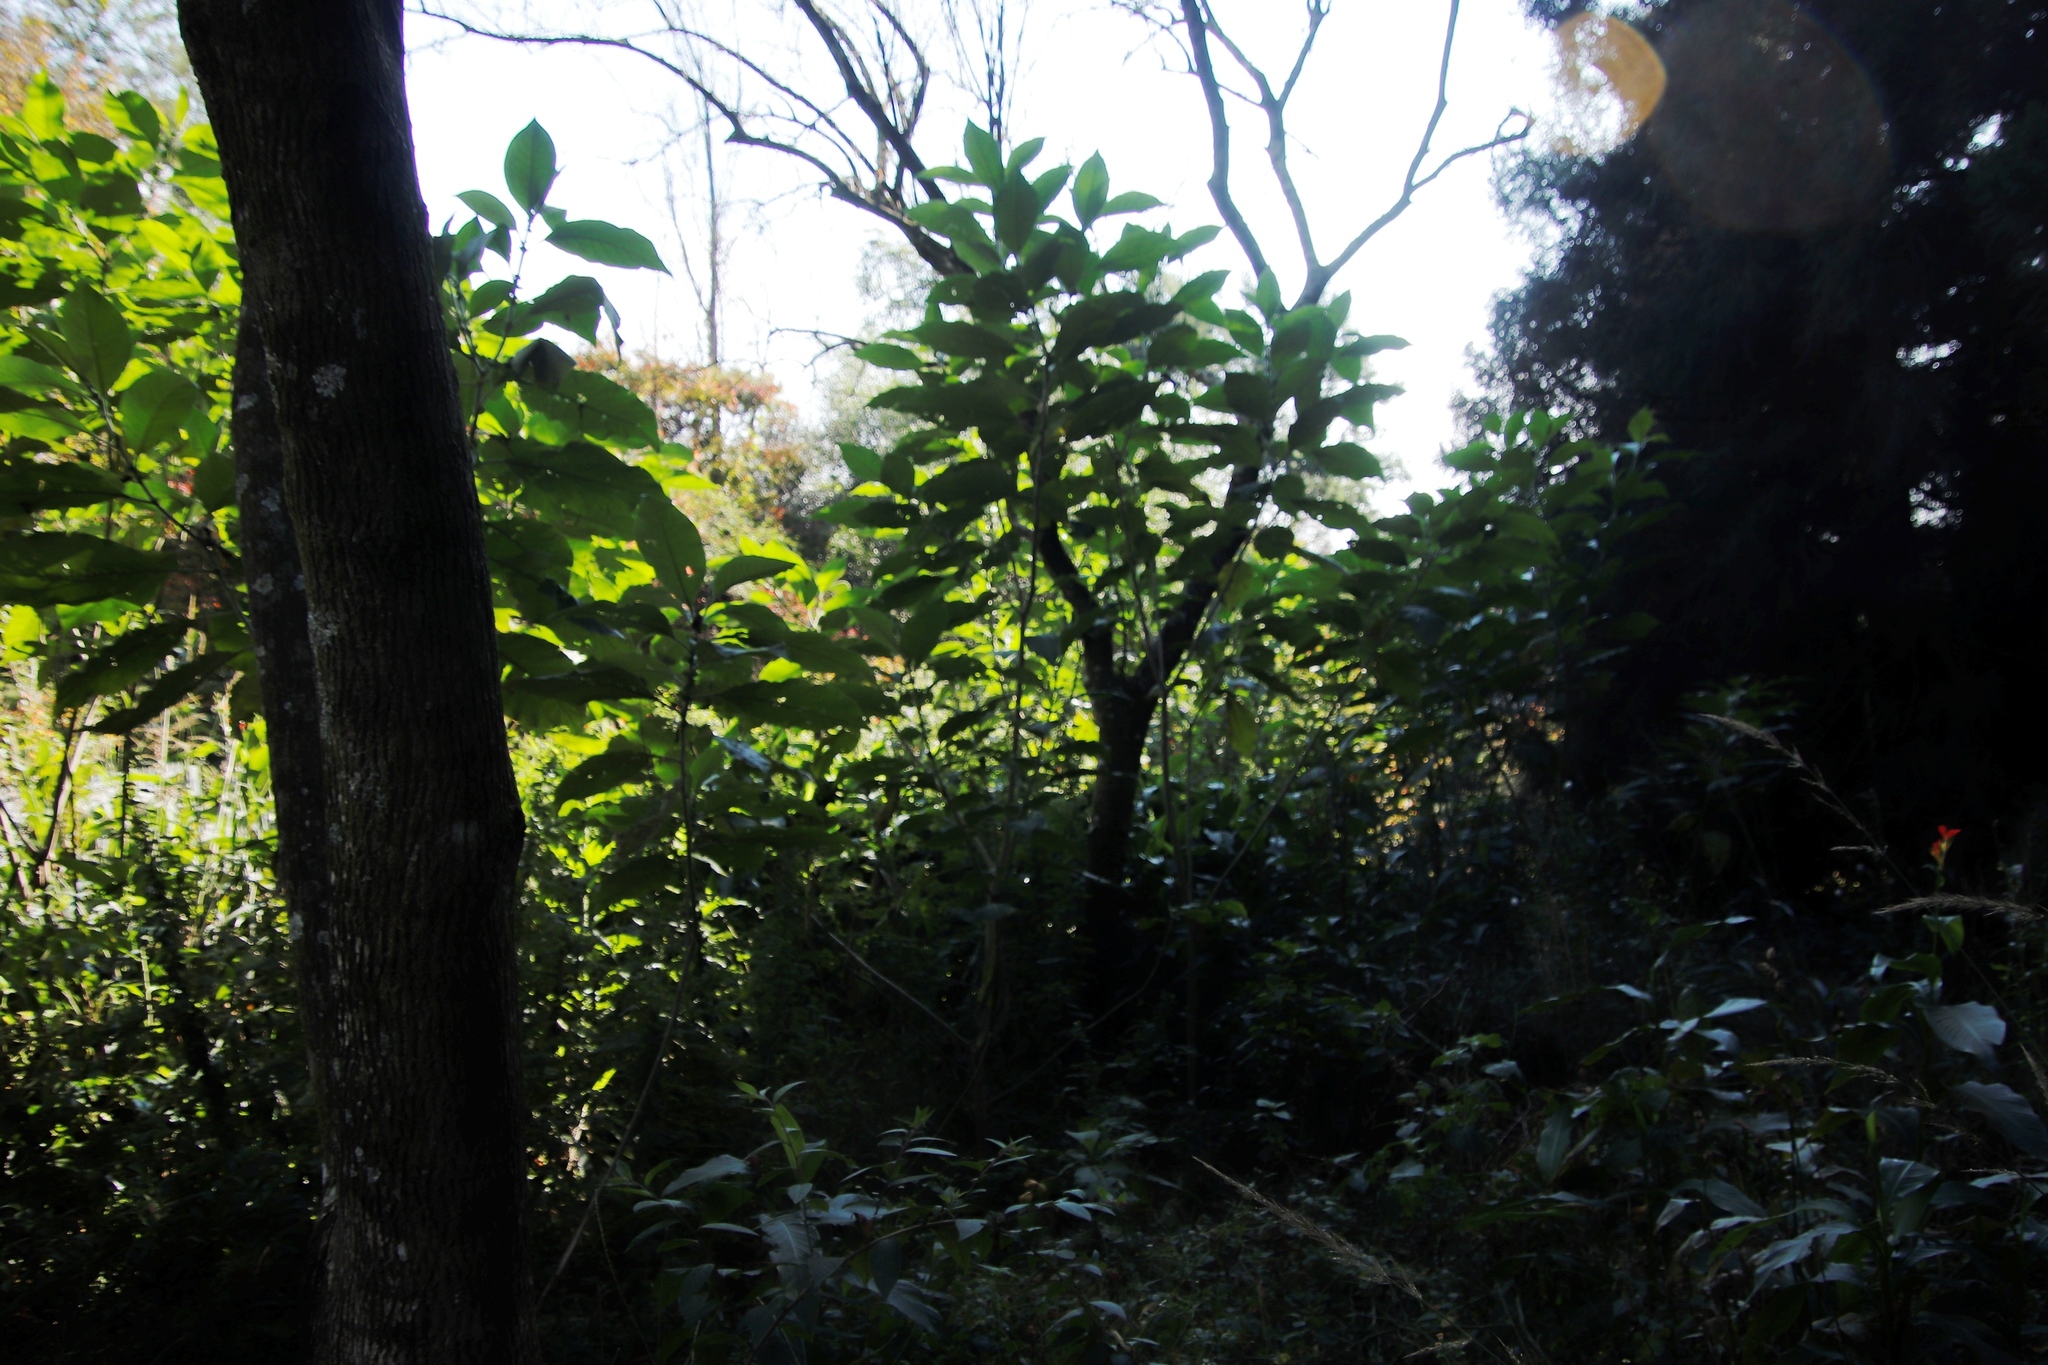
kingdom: Plantae
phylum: Tracheophyta
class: Magnoliopsida
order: Solanales
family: Solanaceae
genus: Solanum
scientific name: Solanum mauritianum
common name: Earleaf nightshade
